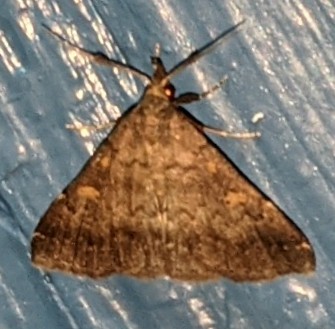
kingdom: Animalia
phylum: Arthropoda
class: Insecta
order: Lepidoptera
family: Erebidae
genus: Renia
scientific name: Renia sobrialis
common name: Sober renia moth
